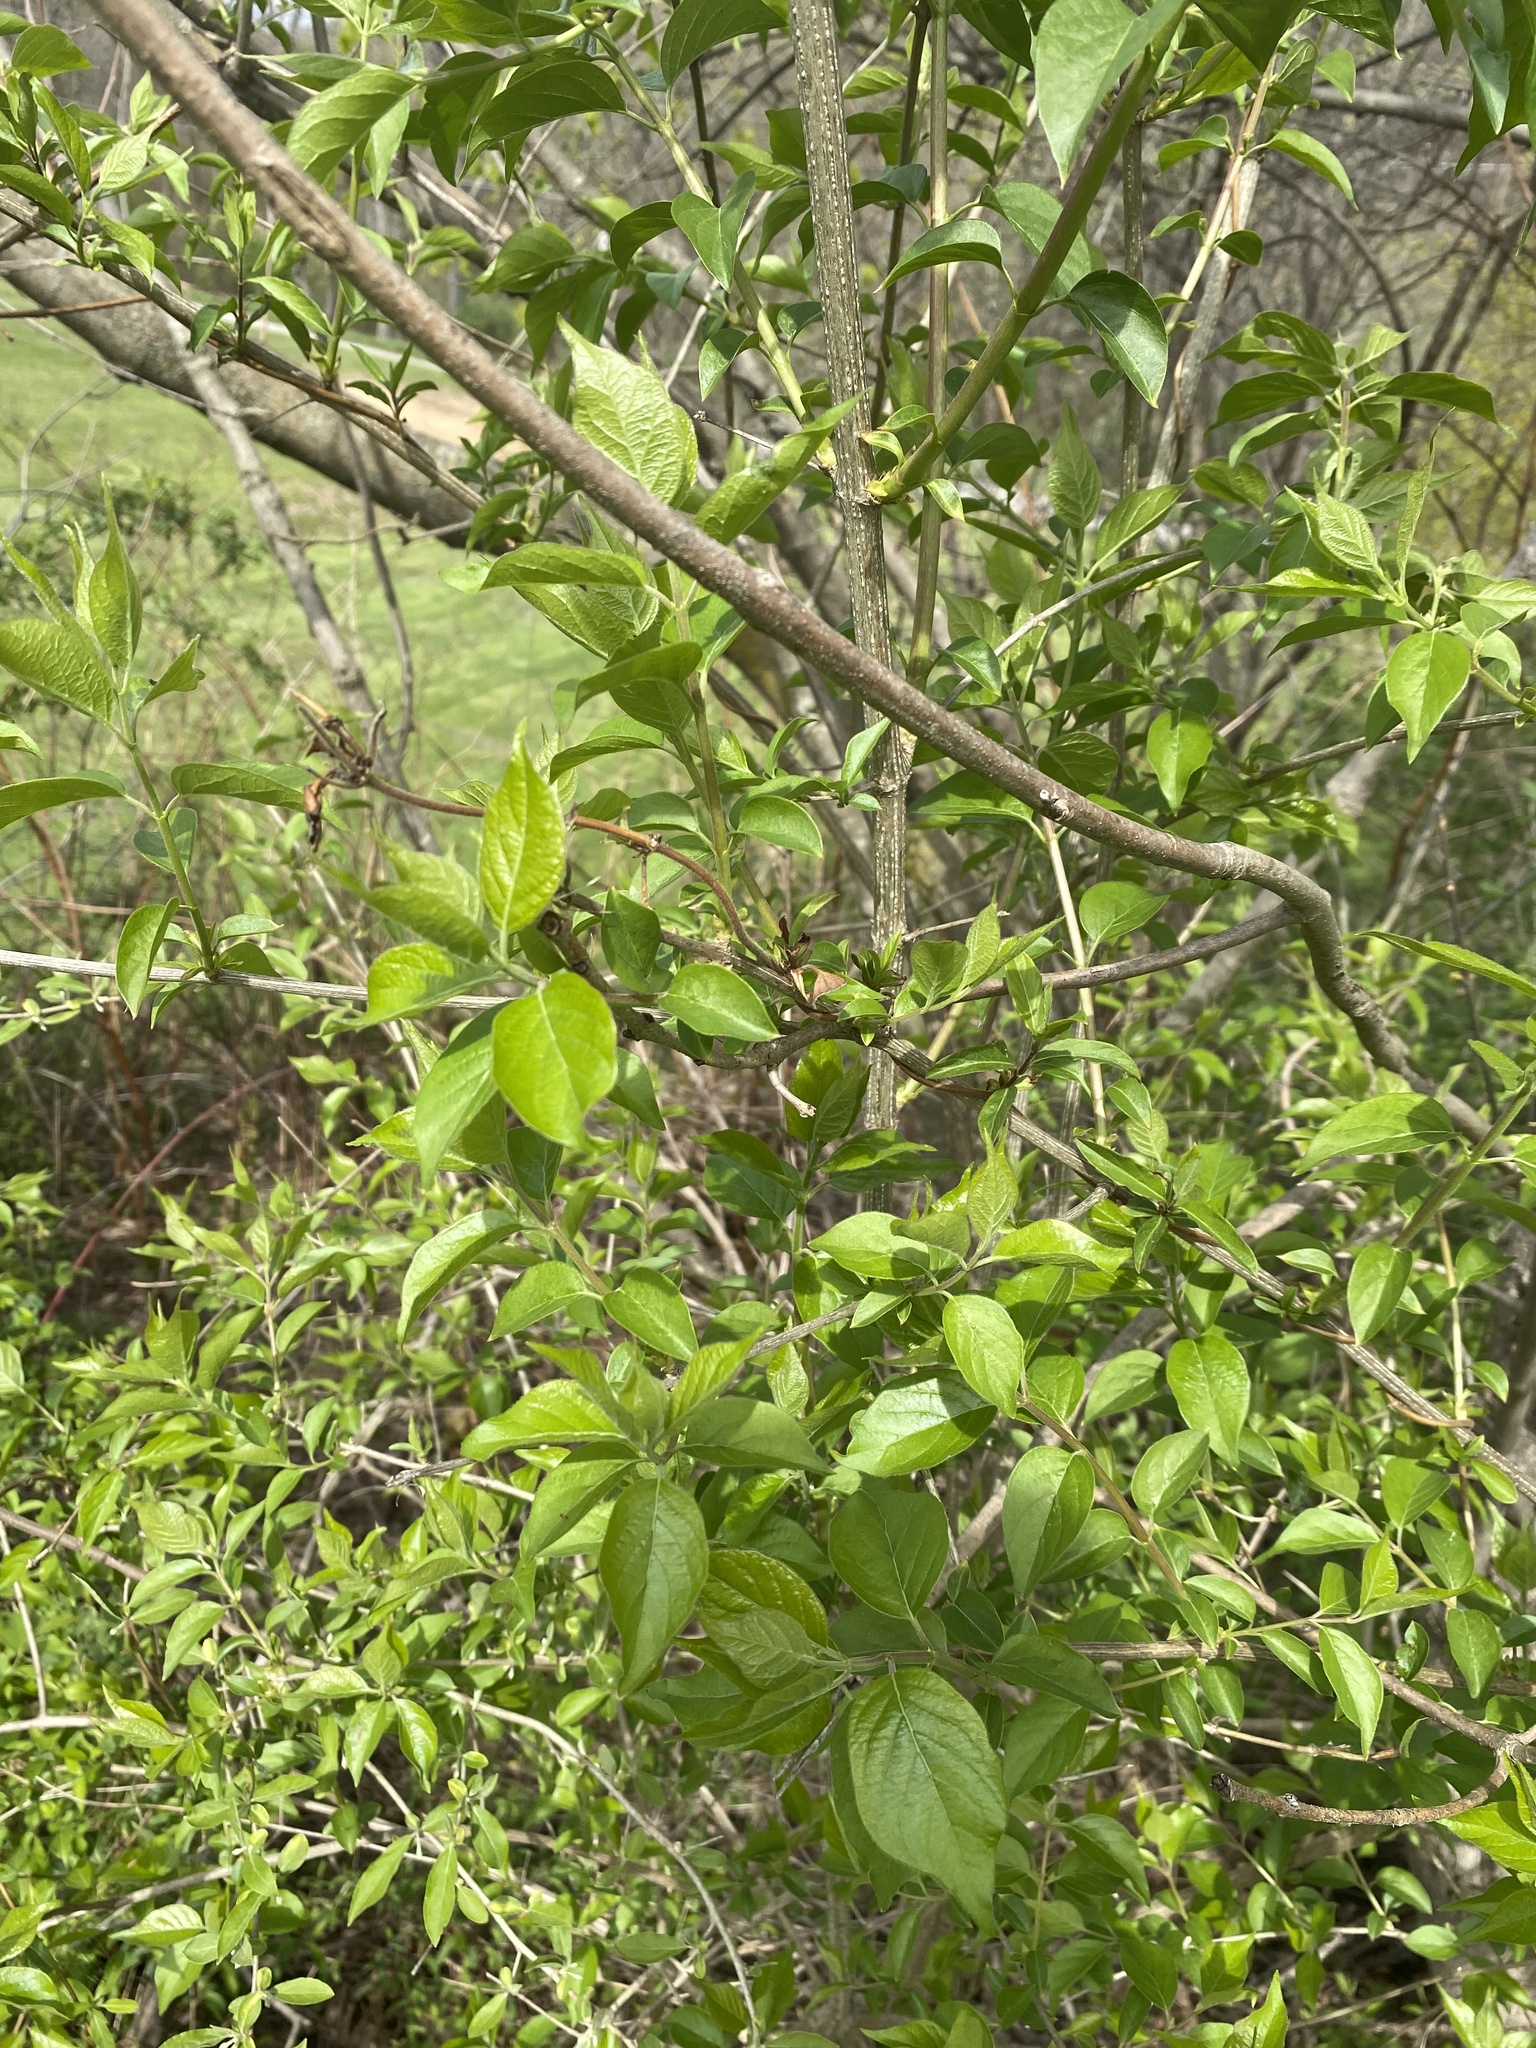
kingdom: Plantae
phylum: Tracheophyta
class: Magnoliopsida
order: Dipsacales
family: Caprifoliaceae
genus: Lonicera
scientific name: Lonicera maackii
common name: Amur honeysuckle
